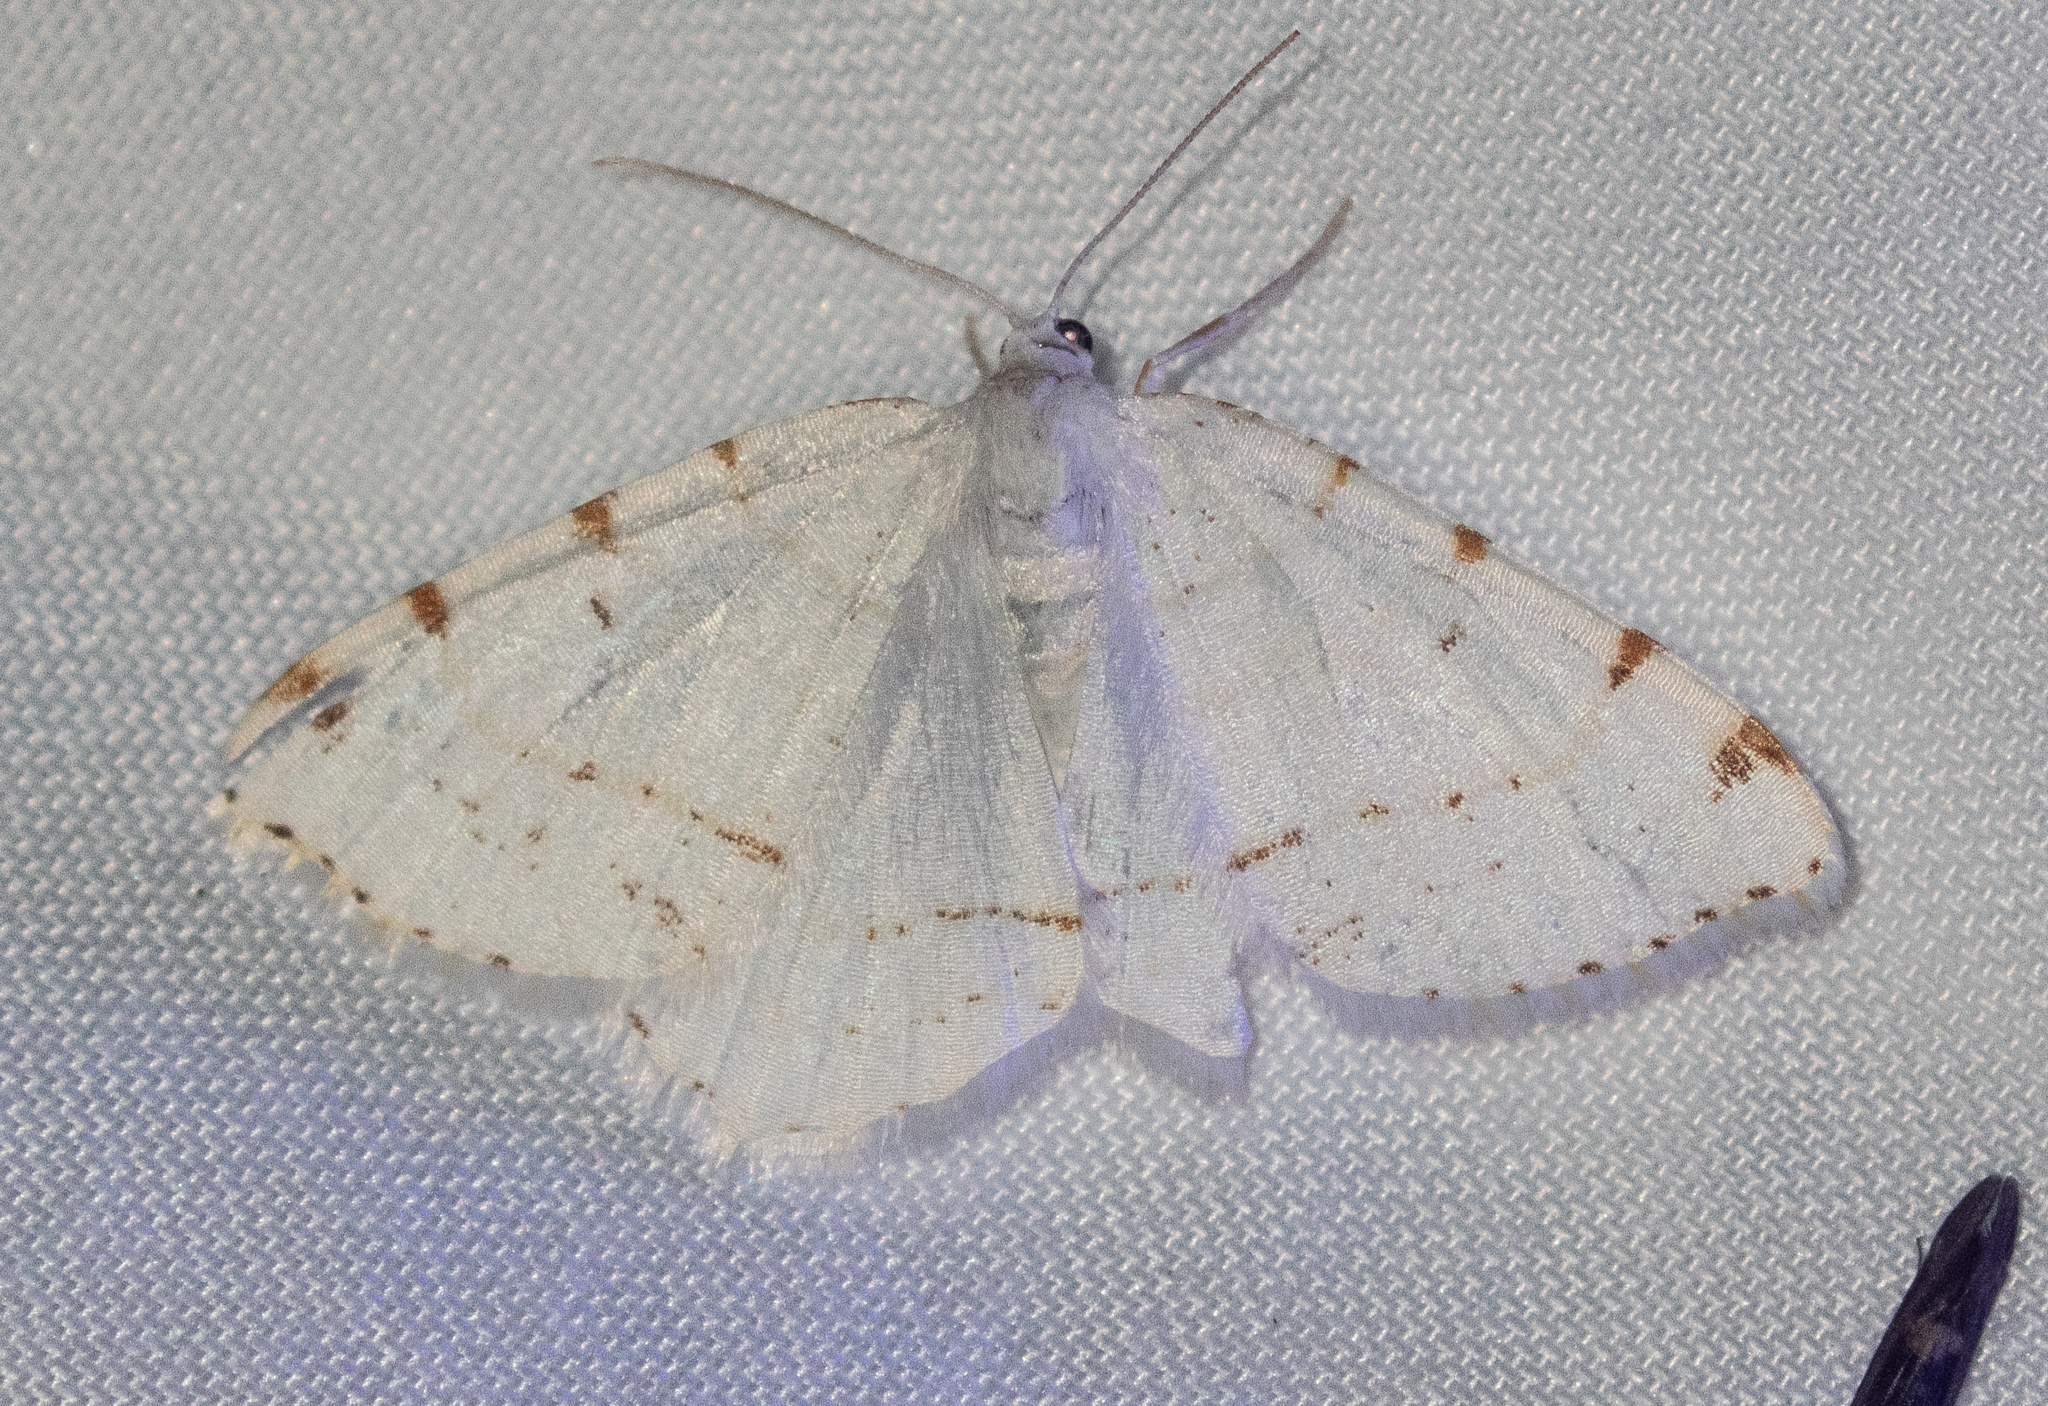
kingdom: Animalia
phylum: Arthropoda
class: Insecta
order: Lepidoptera
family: Geometridae
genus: Macaria
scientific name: Macaria pustularia
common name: Lesser maple spanworm moth
